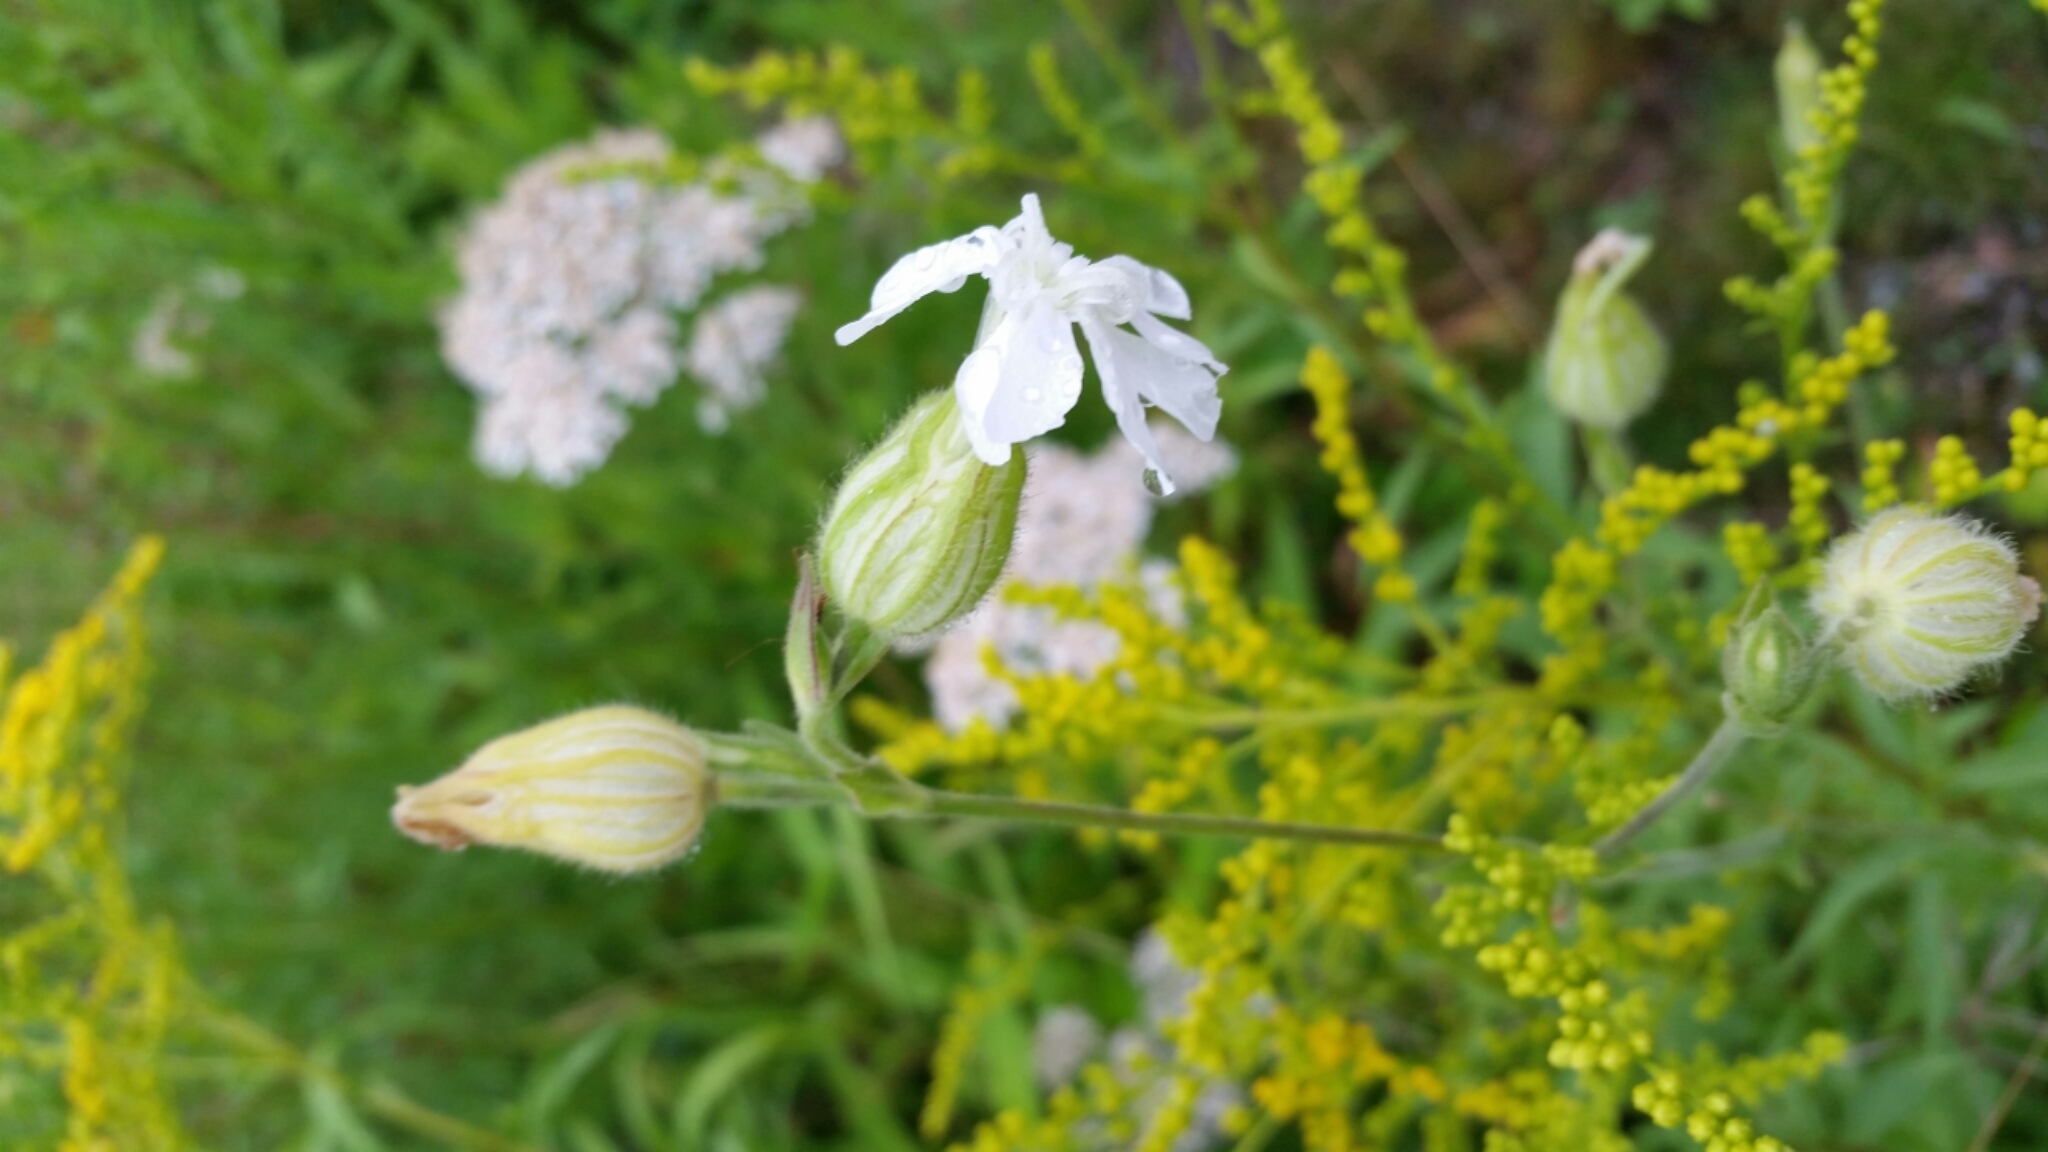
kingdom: Plantae
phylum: Tracheophyta
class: Magnoliopsida
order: Caryophyllales
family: Caryophyllaceae
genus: Silene
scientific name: Silene latifolia
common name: White campion
